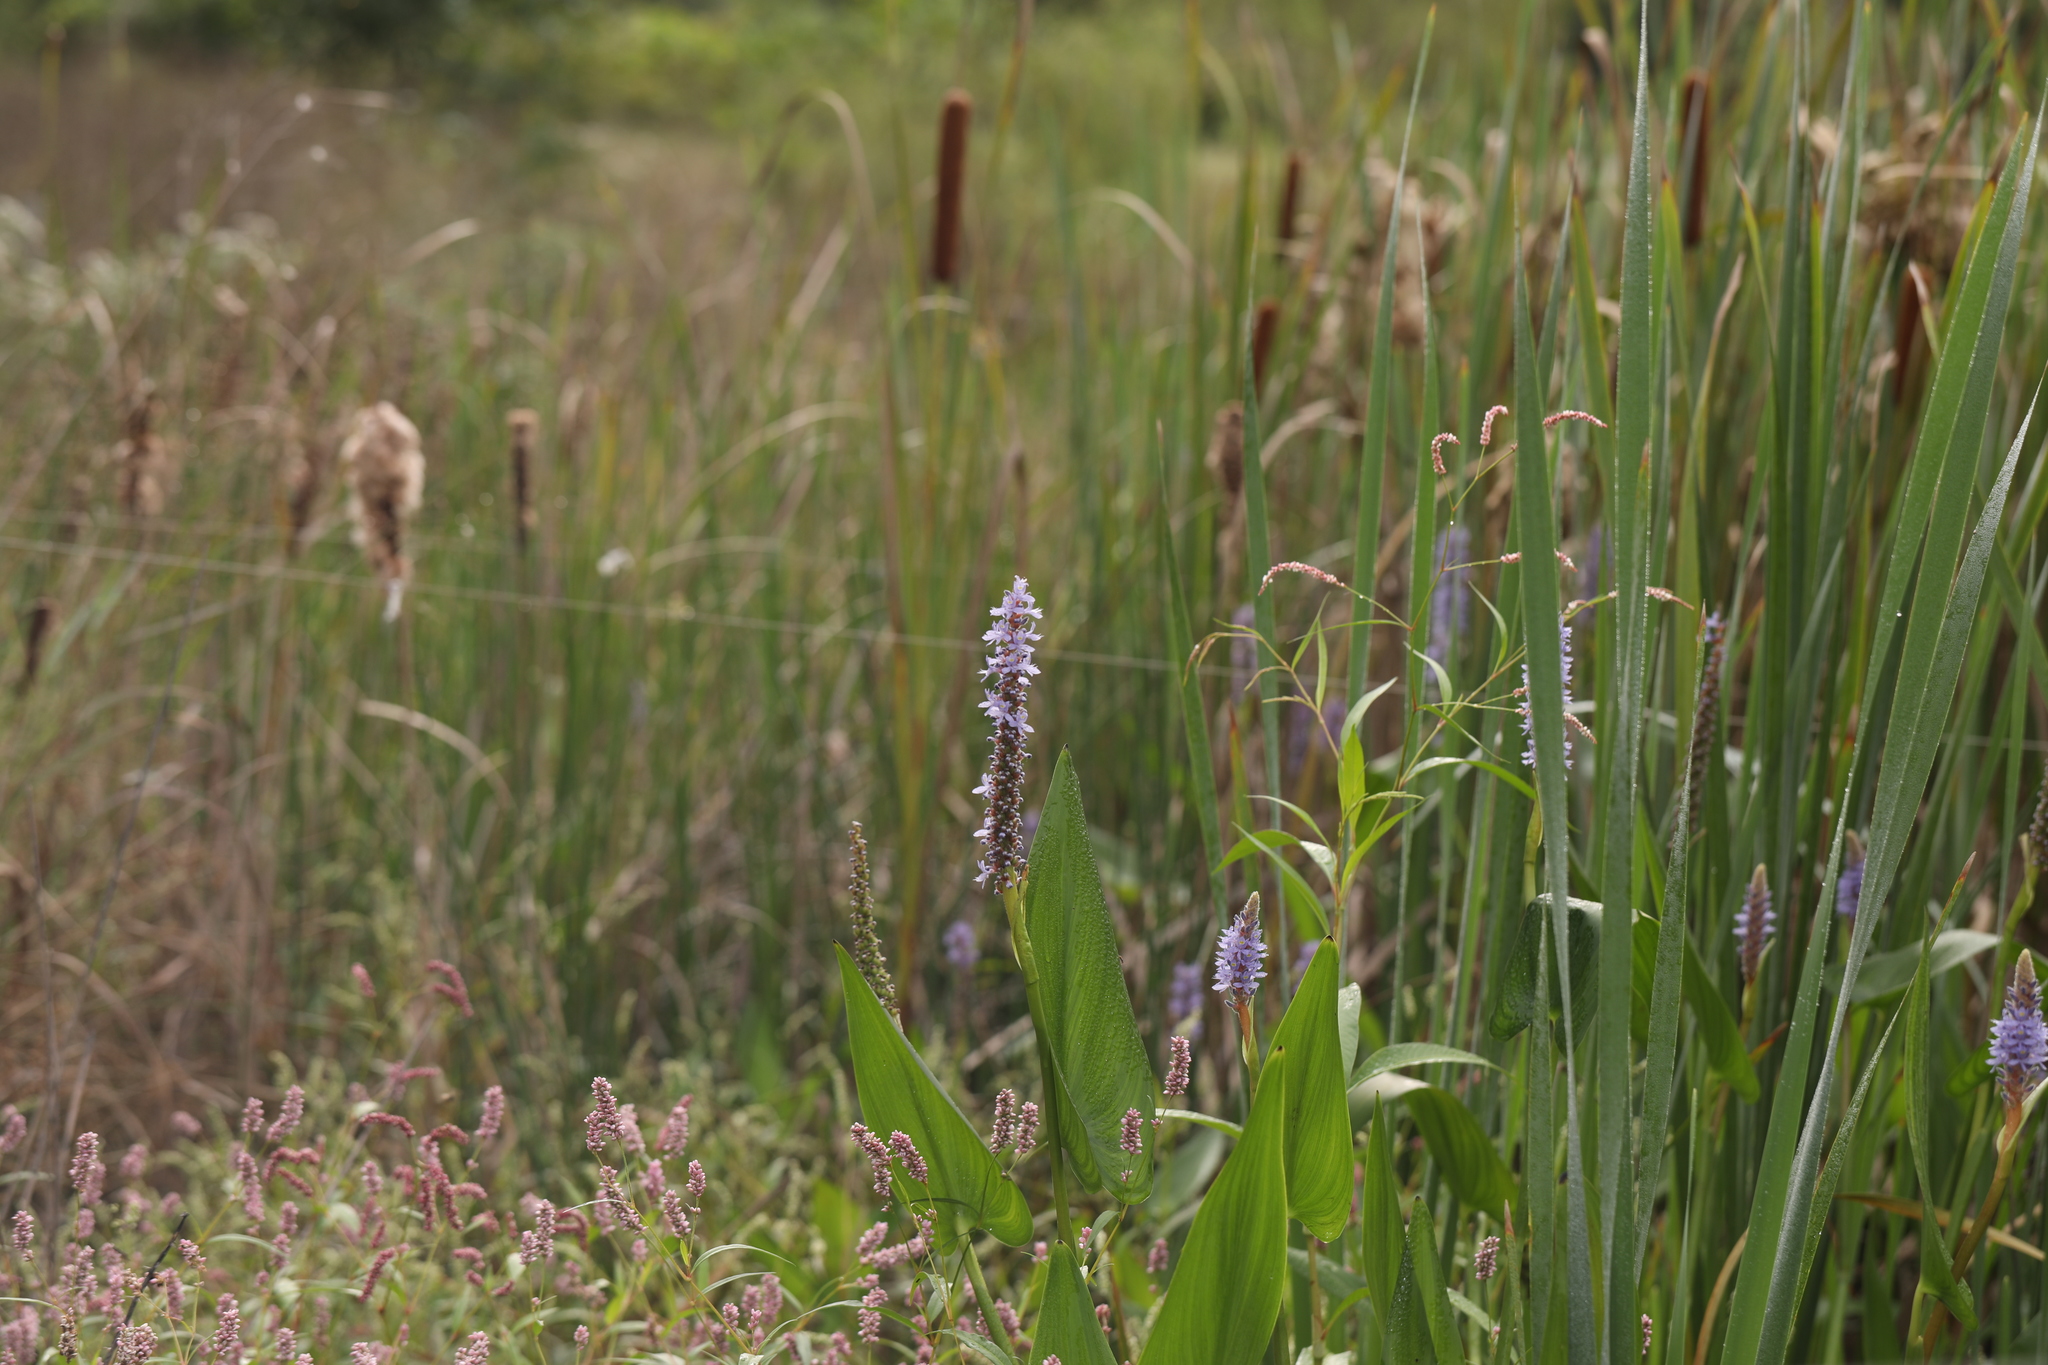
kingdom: Plantae
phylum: Tracheophyta
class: Liliopsida
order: Commelinales
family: Pontederiaceae
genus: Pontederia
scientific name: Pontederia cordata
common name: Pickerelweed
